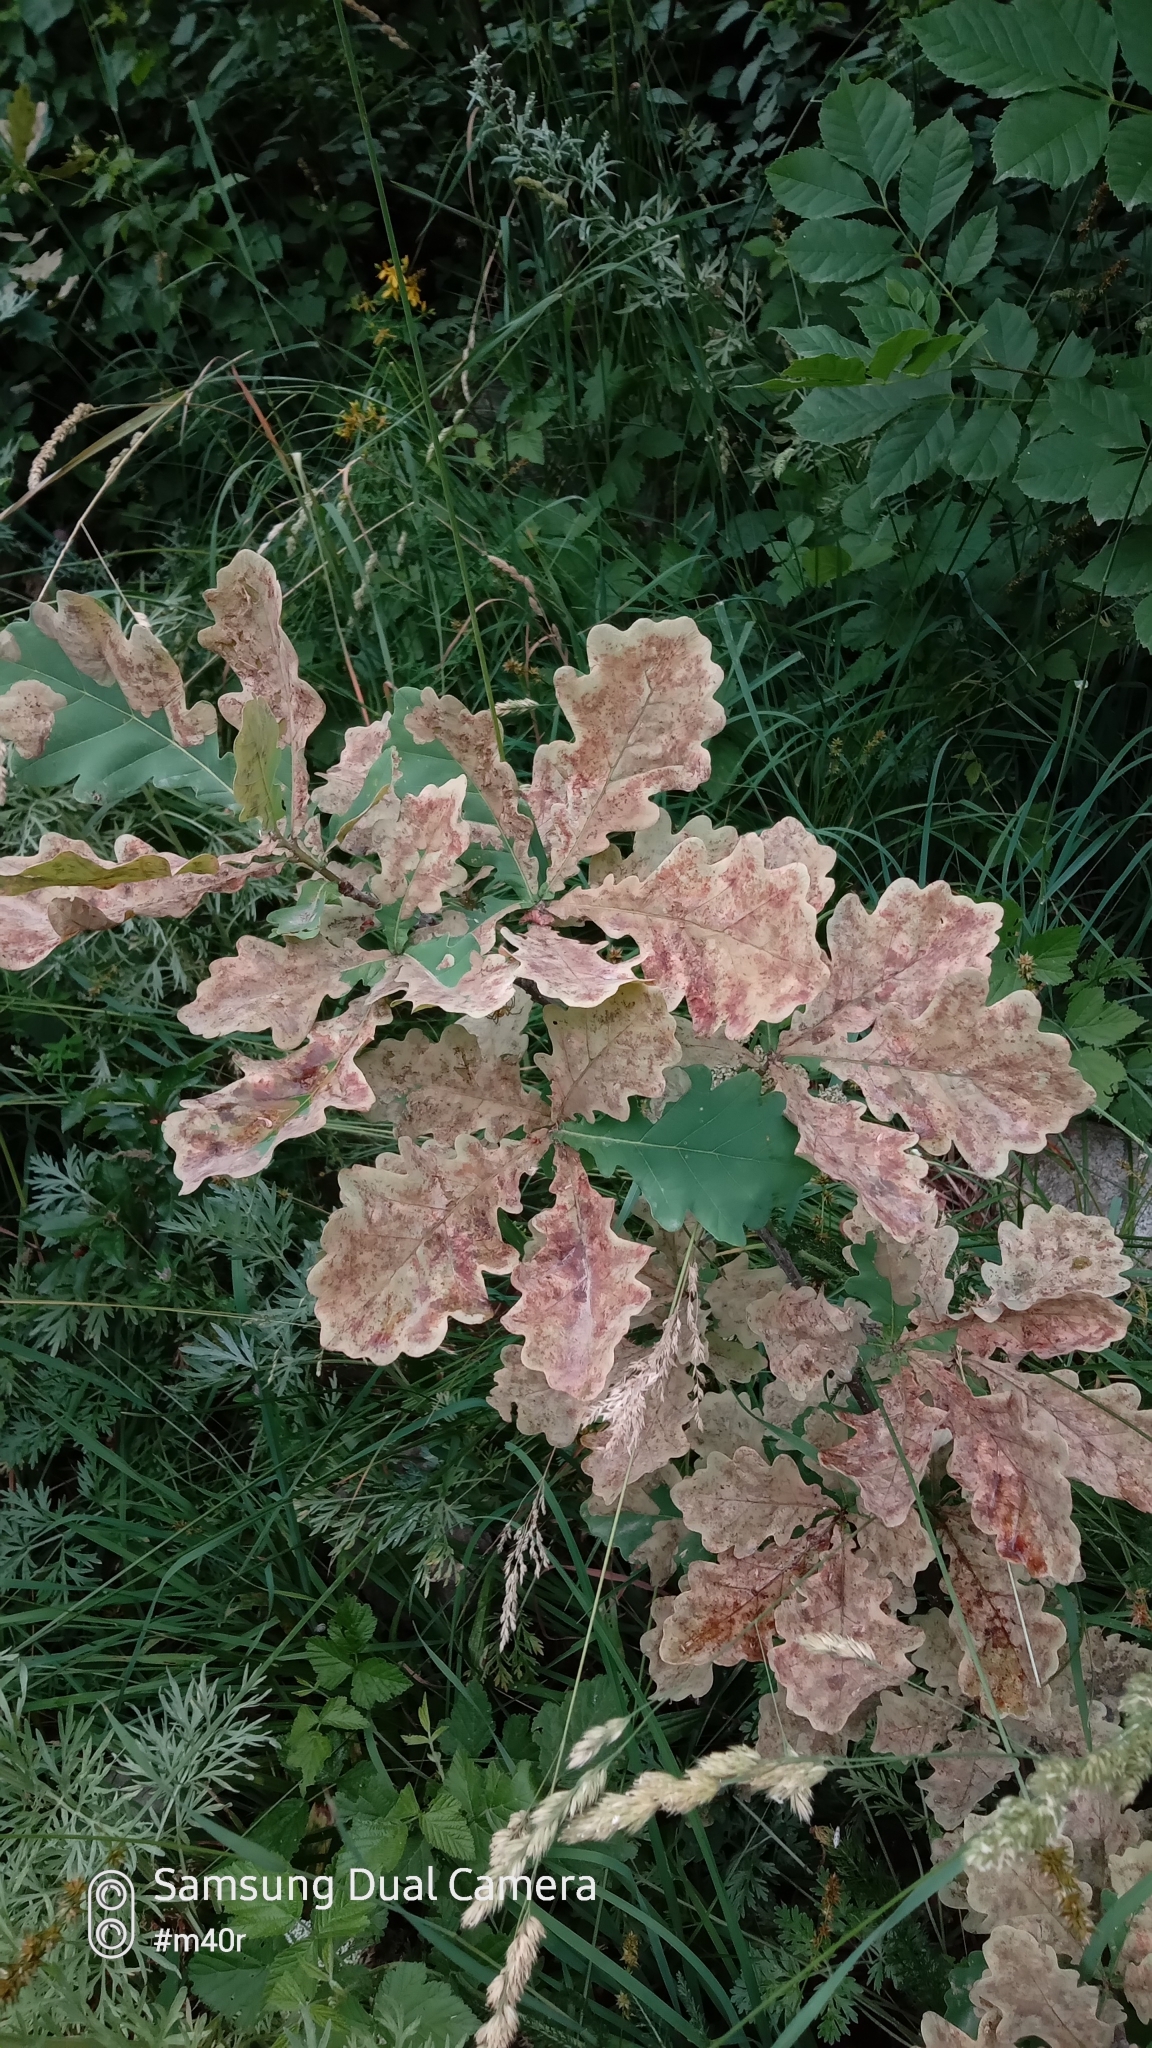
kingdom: Plantae
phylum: Tracheophyta
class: Magnoliopsida
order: Fagales
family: Fagaceae
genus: Quercus
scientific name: Quercus robur
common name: Pedunculate oak
